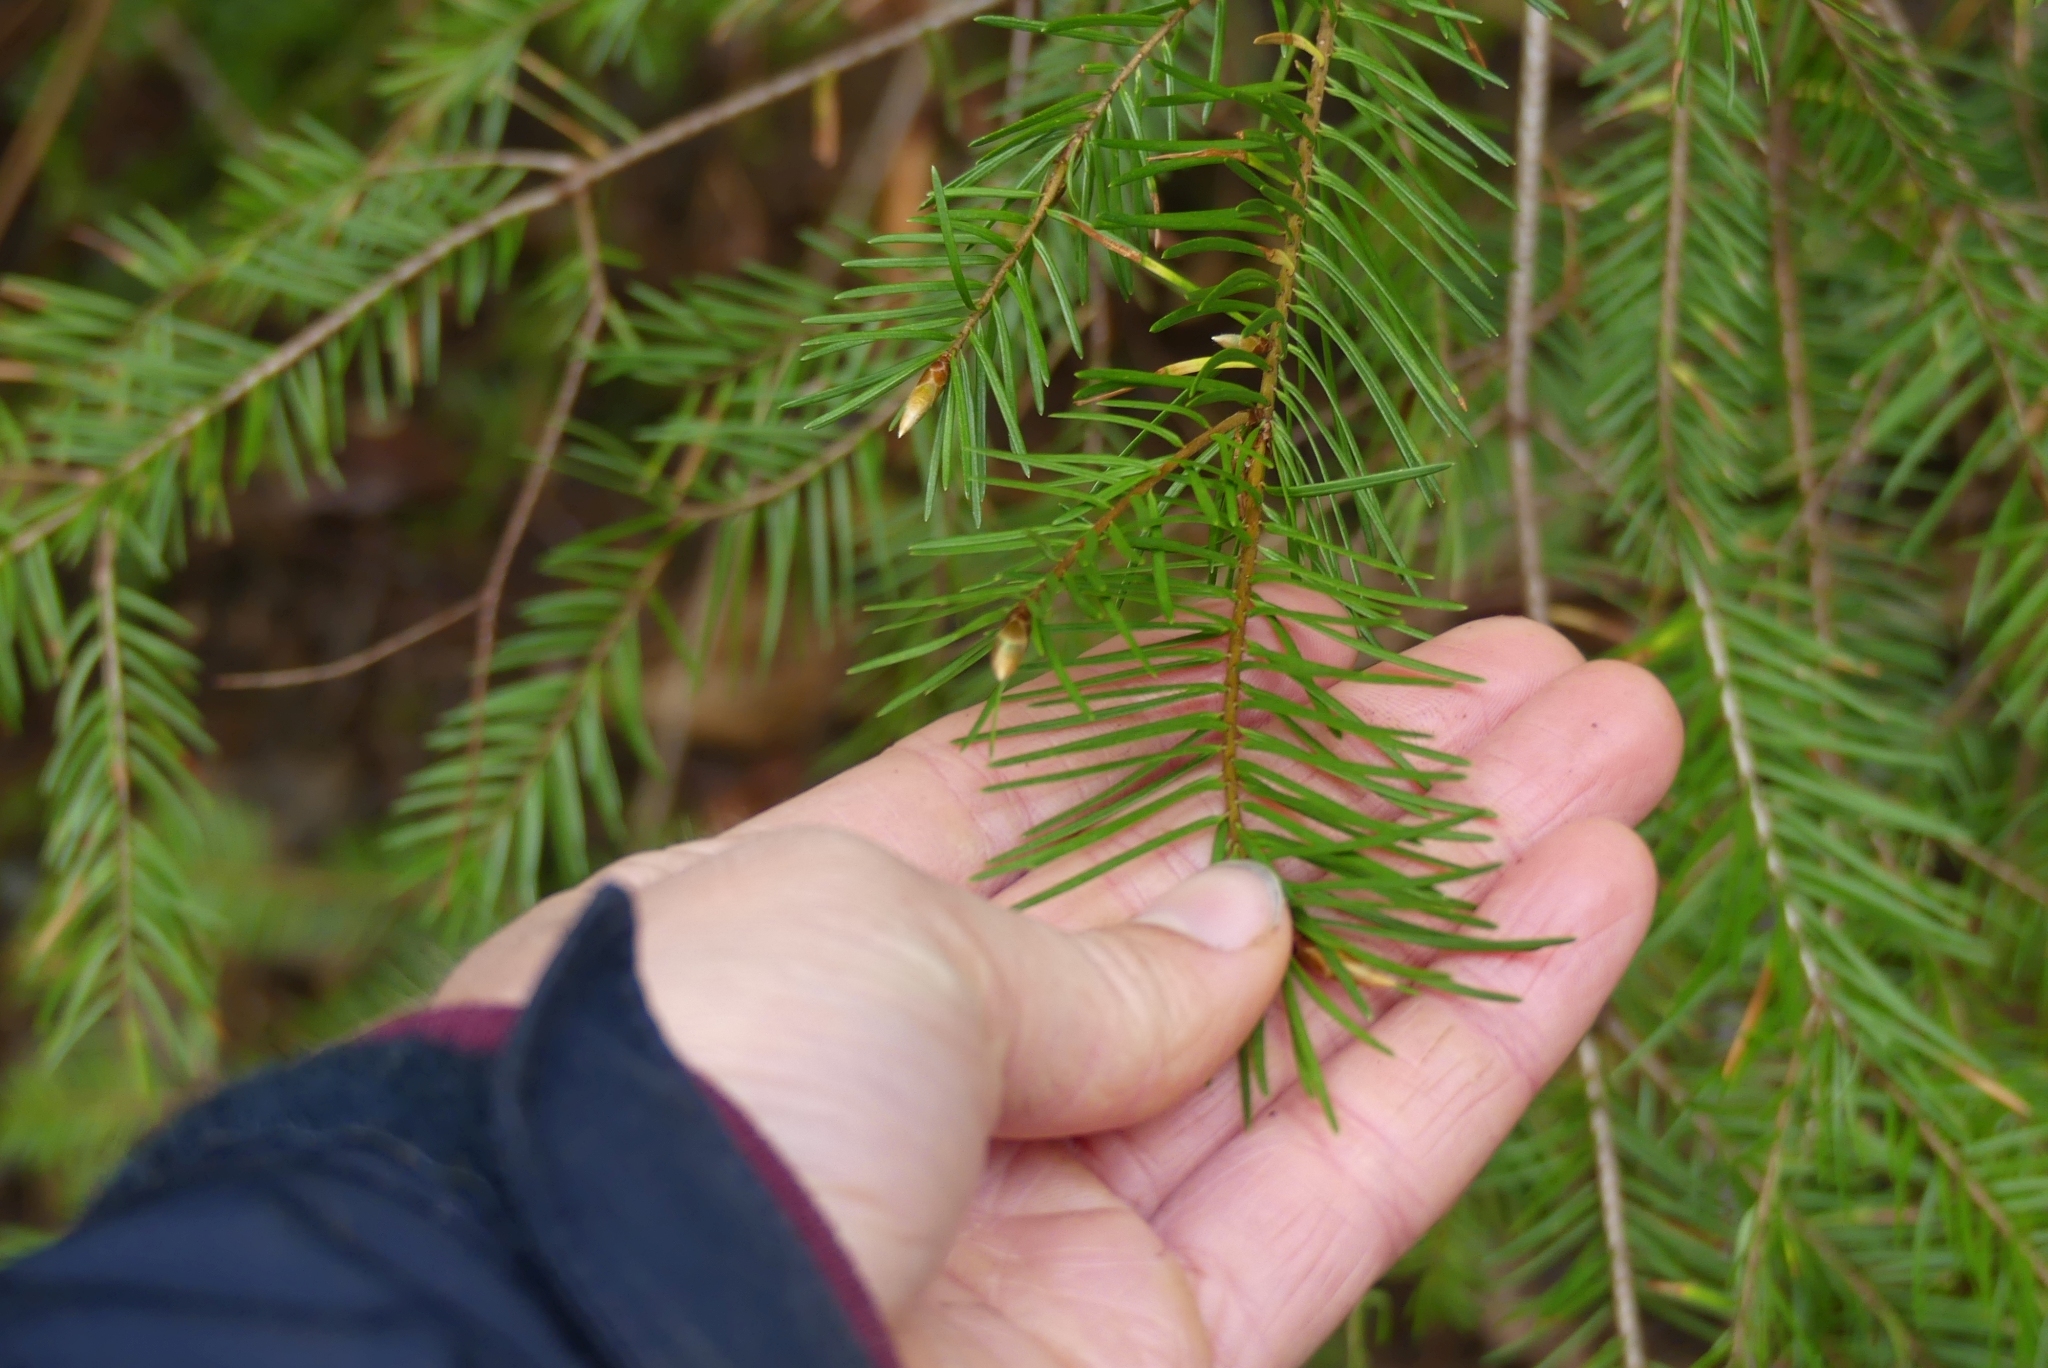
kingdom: Plantae
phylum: Tracheophyta
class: Pinopsida
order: Pinales
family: Pinaceae
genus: Pseudotsuga
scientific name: Pseudotsuga menziesii
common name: Douglas fir
